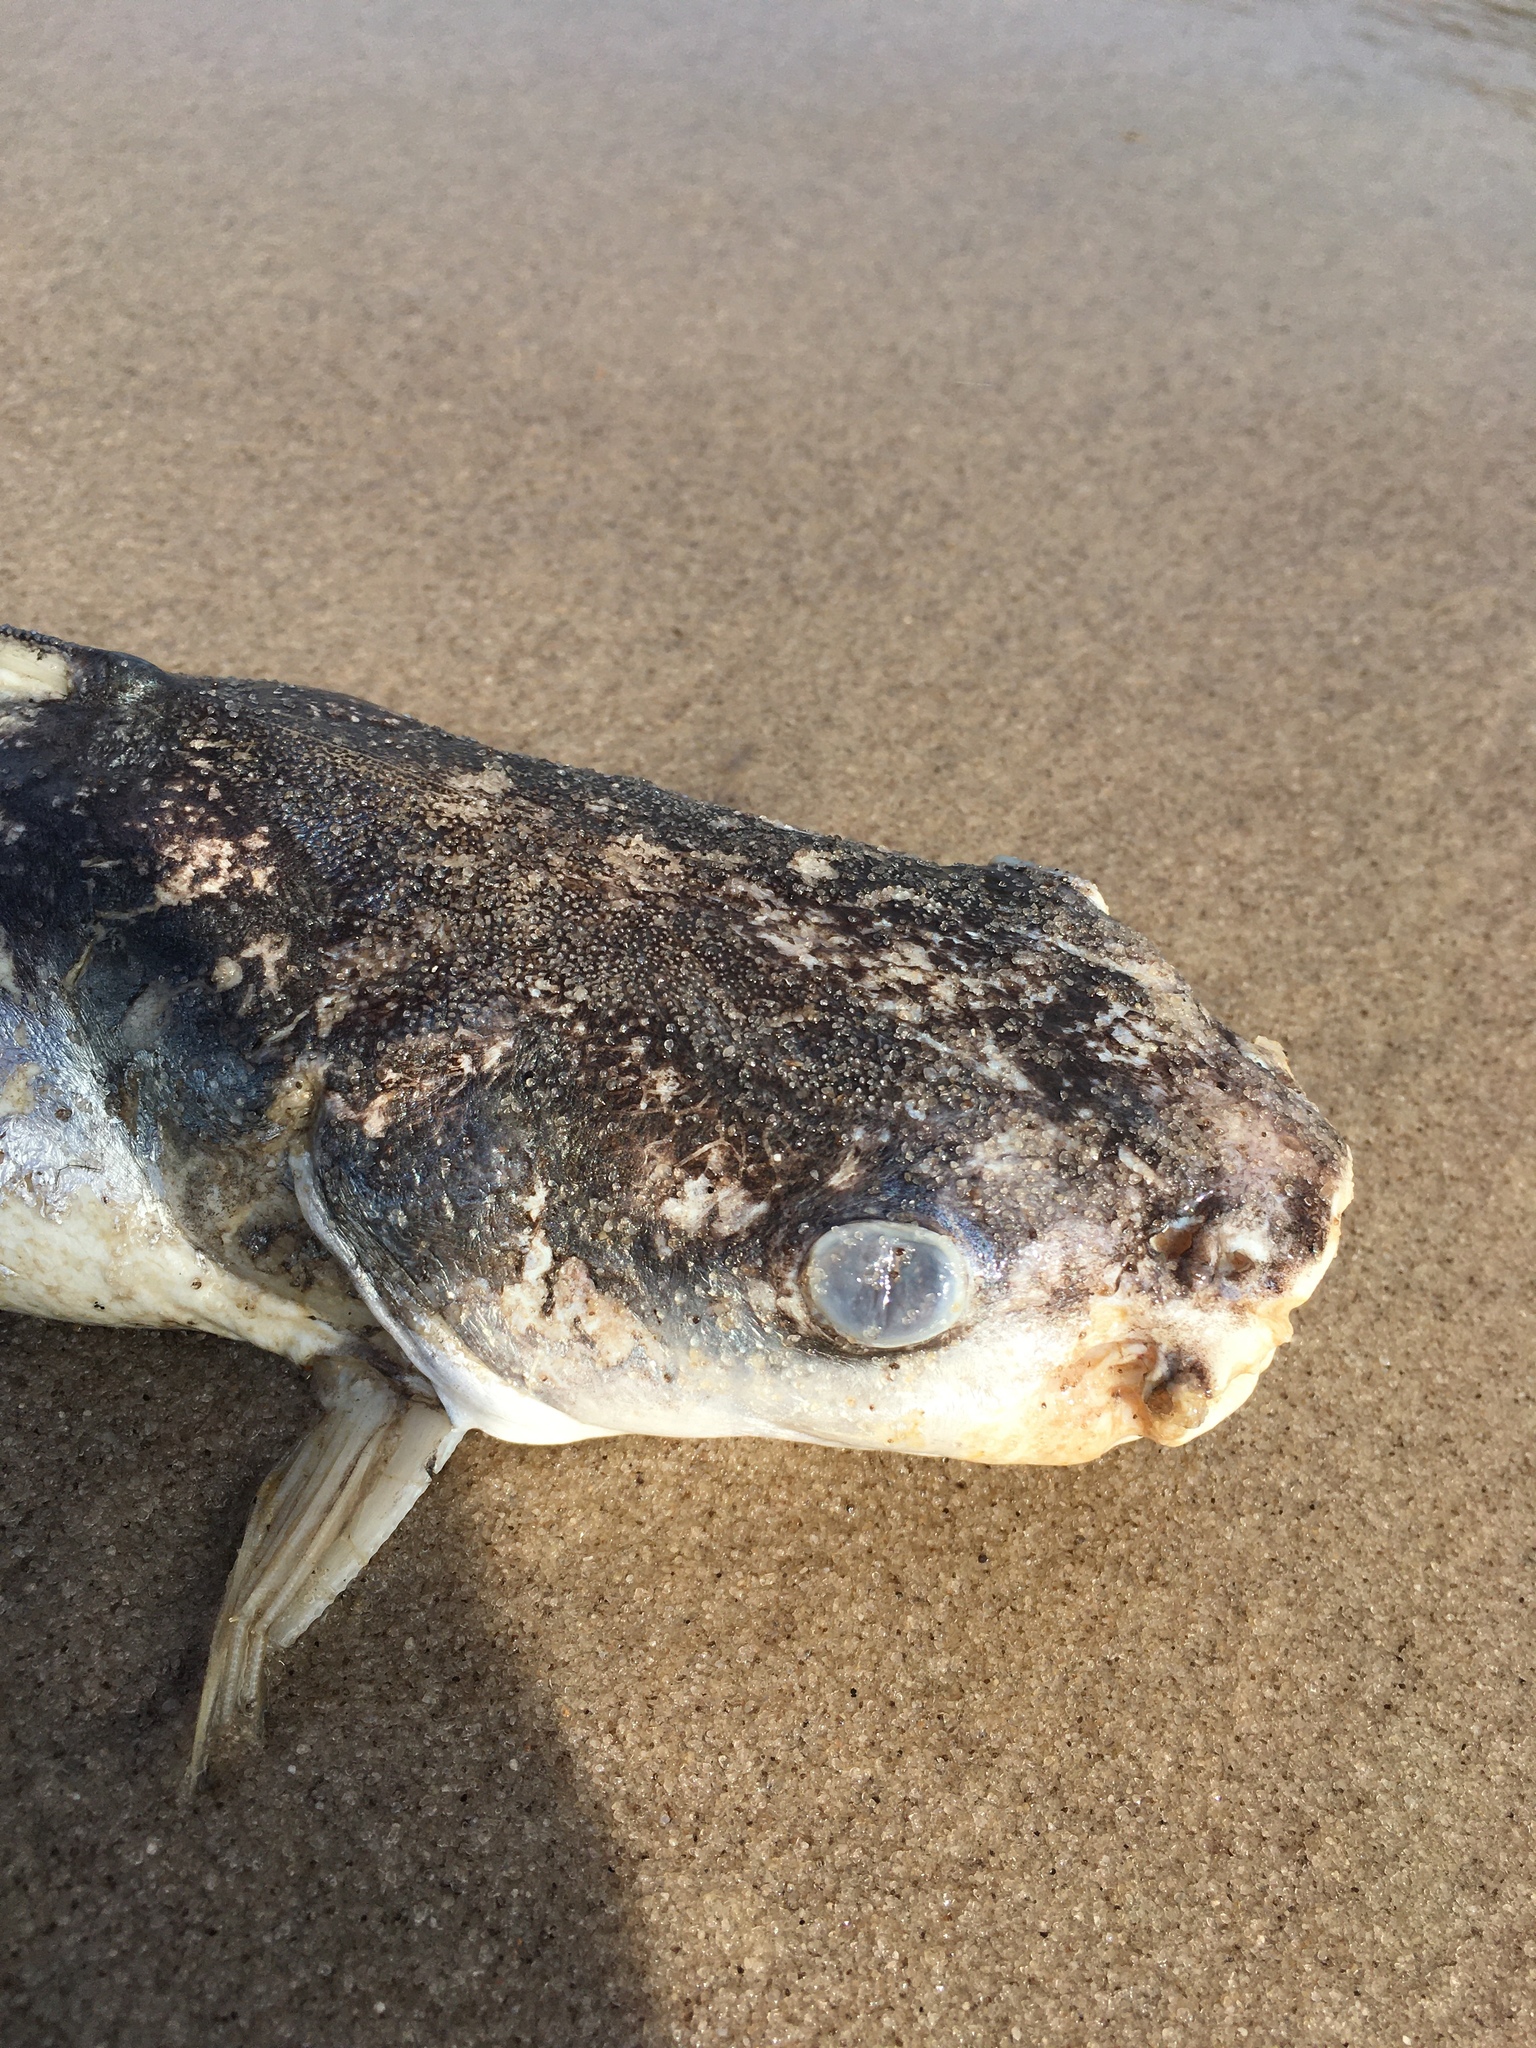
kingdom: Animalia
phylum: Chordata
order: Siluriformes
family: Ariidae
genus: Ariopsis
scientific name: Ariopsis felis
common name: Hardhead catfish
